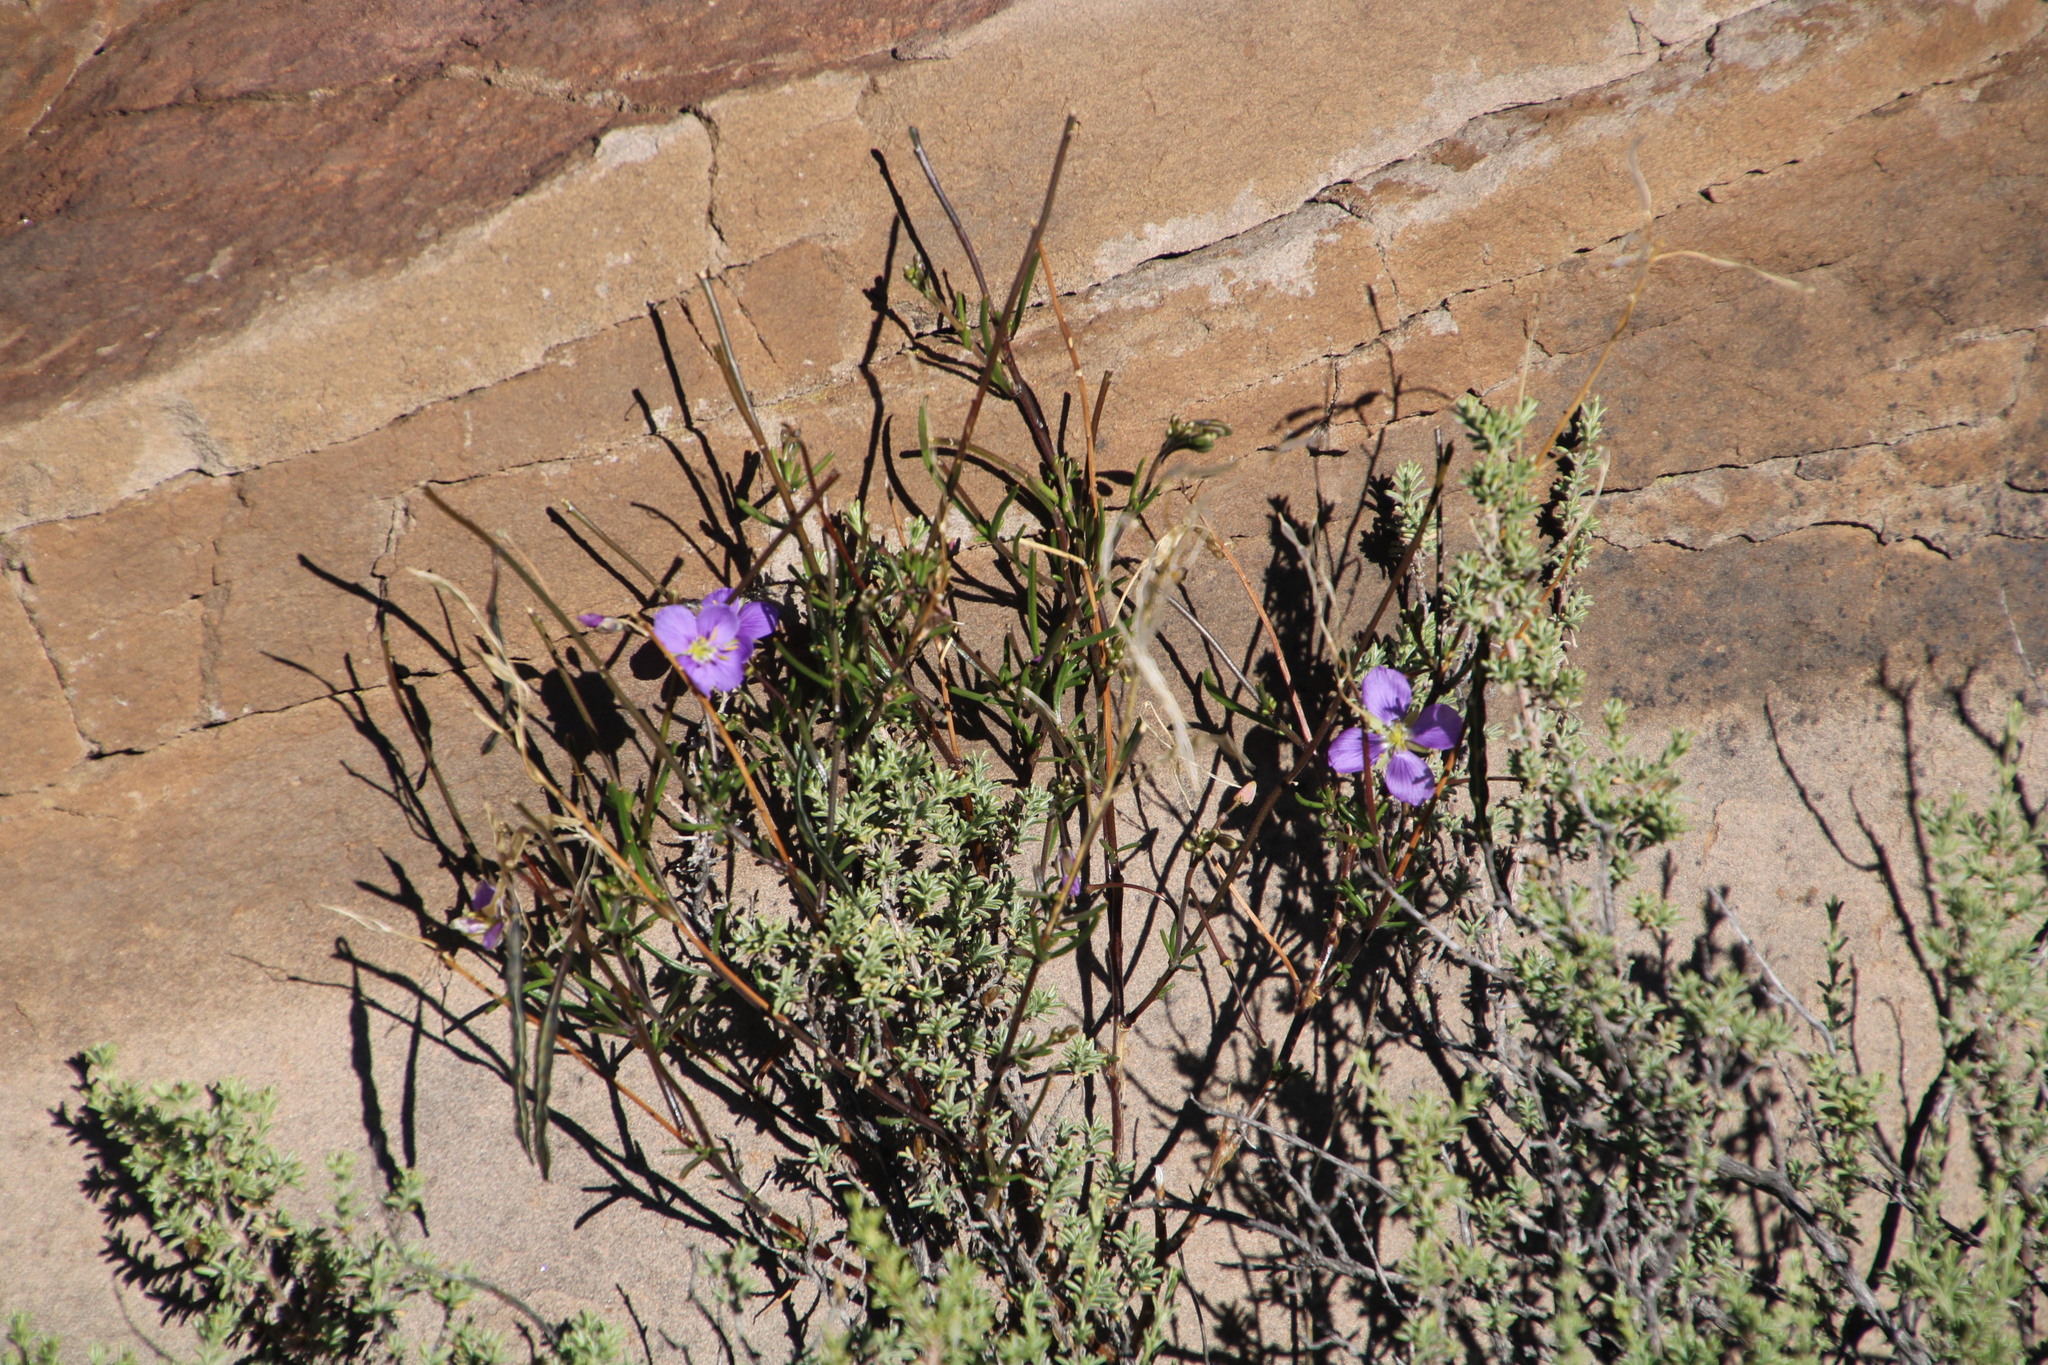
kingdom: Plantae
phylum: Tracheophyta
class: Magnoliopsida
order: Brassicales
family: Brassicaceae
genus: Heliophila
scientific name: Heliophila suavissima
